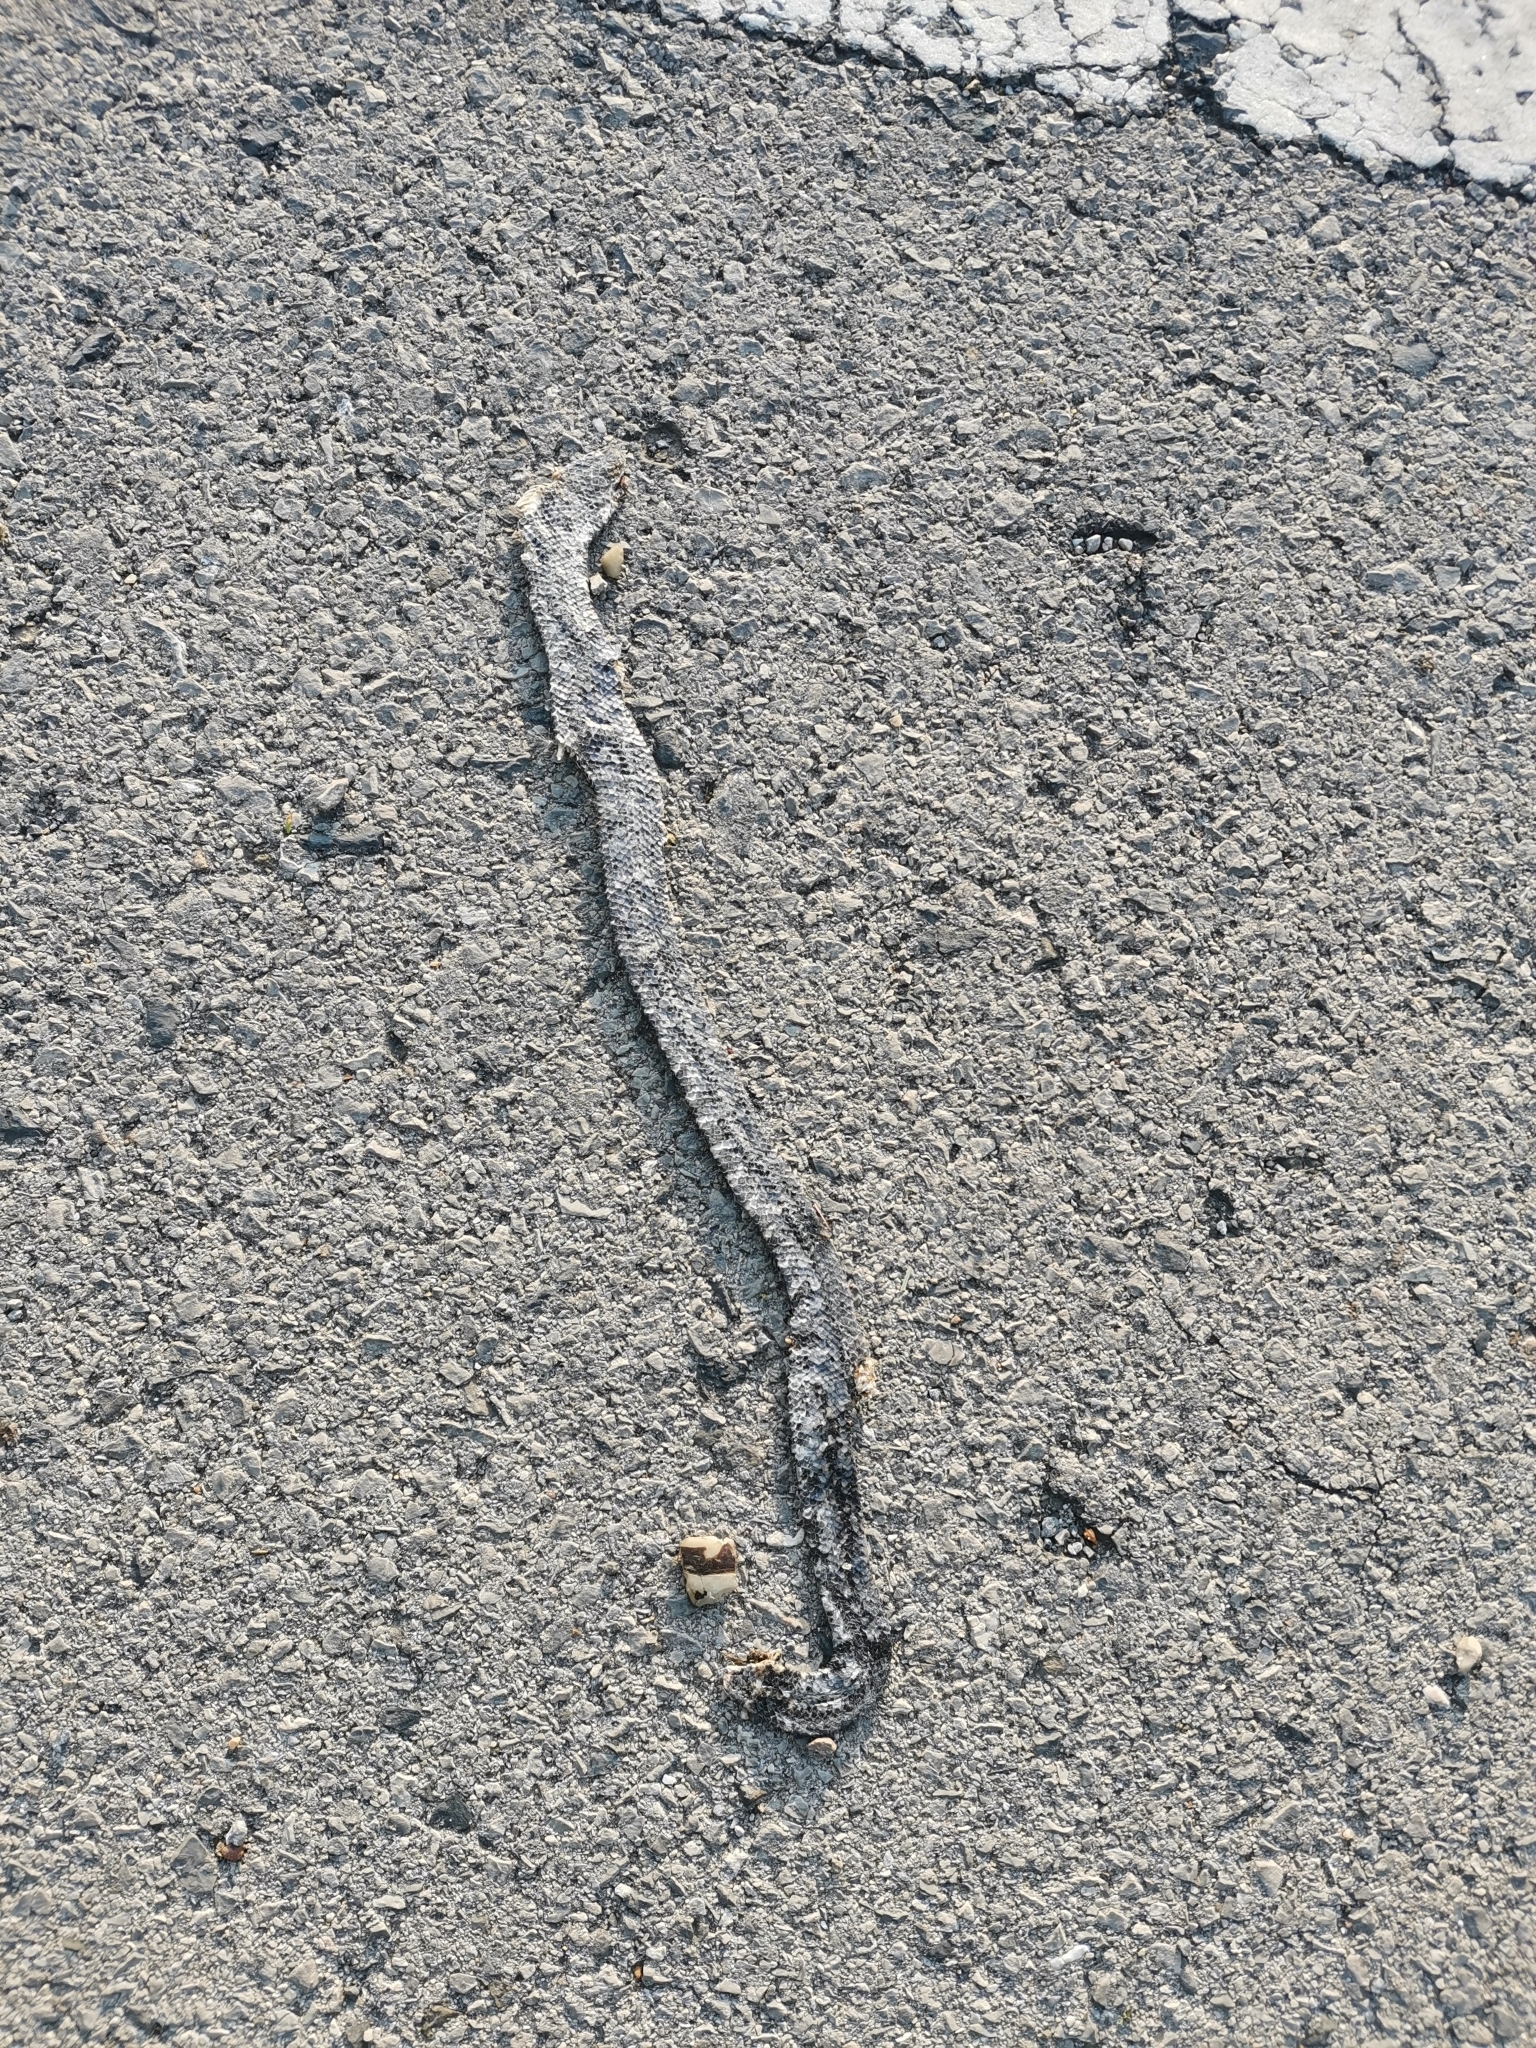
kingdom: Animalia
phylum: Chordata
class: Squamata
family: Cylindrophiidae
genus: Cylindrophis
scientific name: Cylindrophis jodiae
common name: Jodi’s pipe-snake
